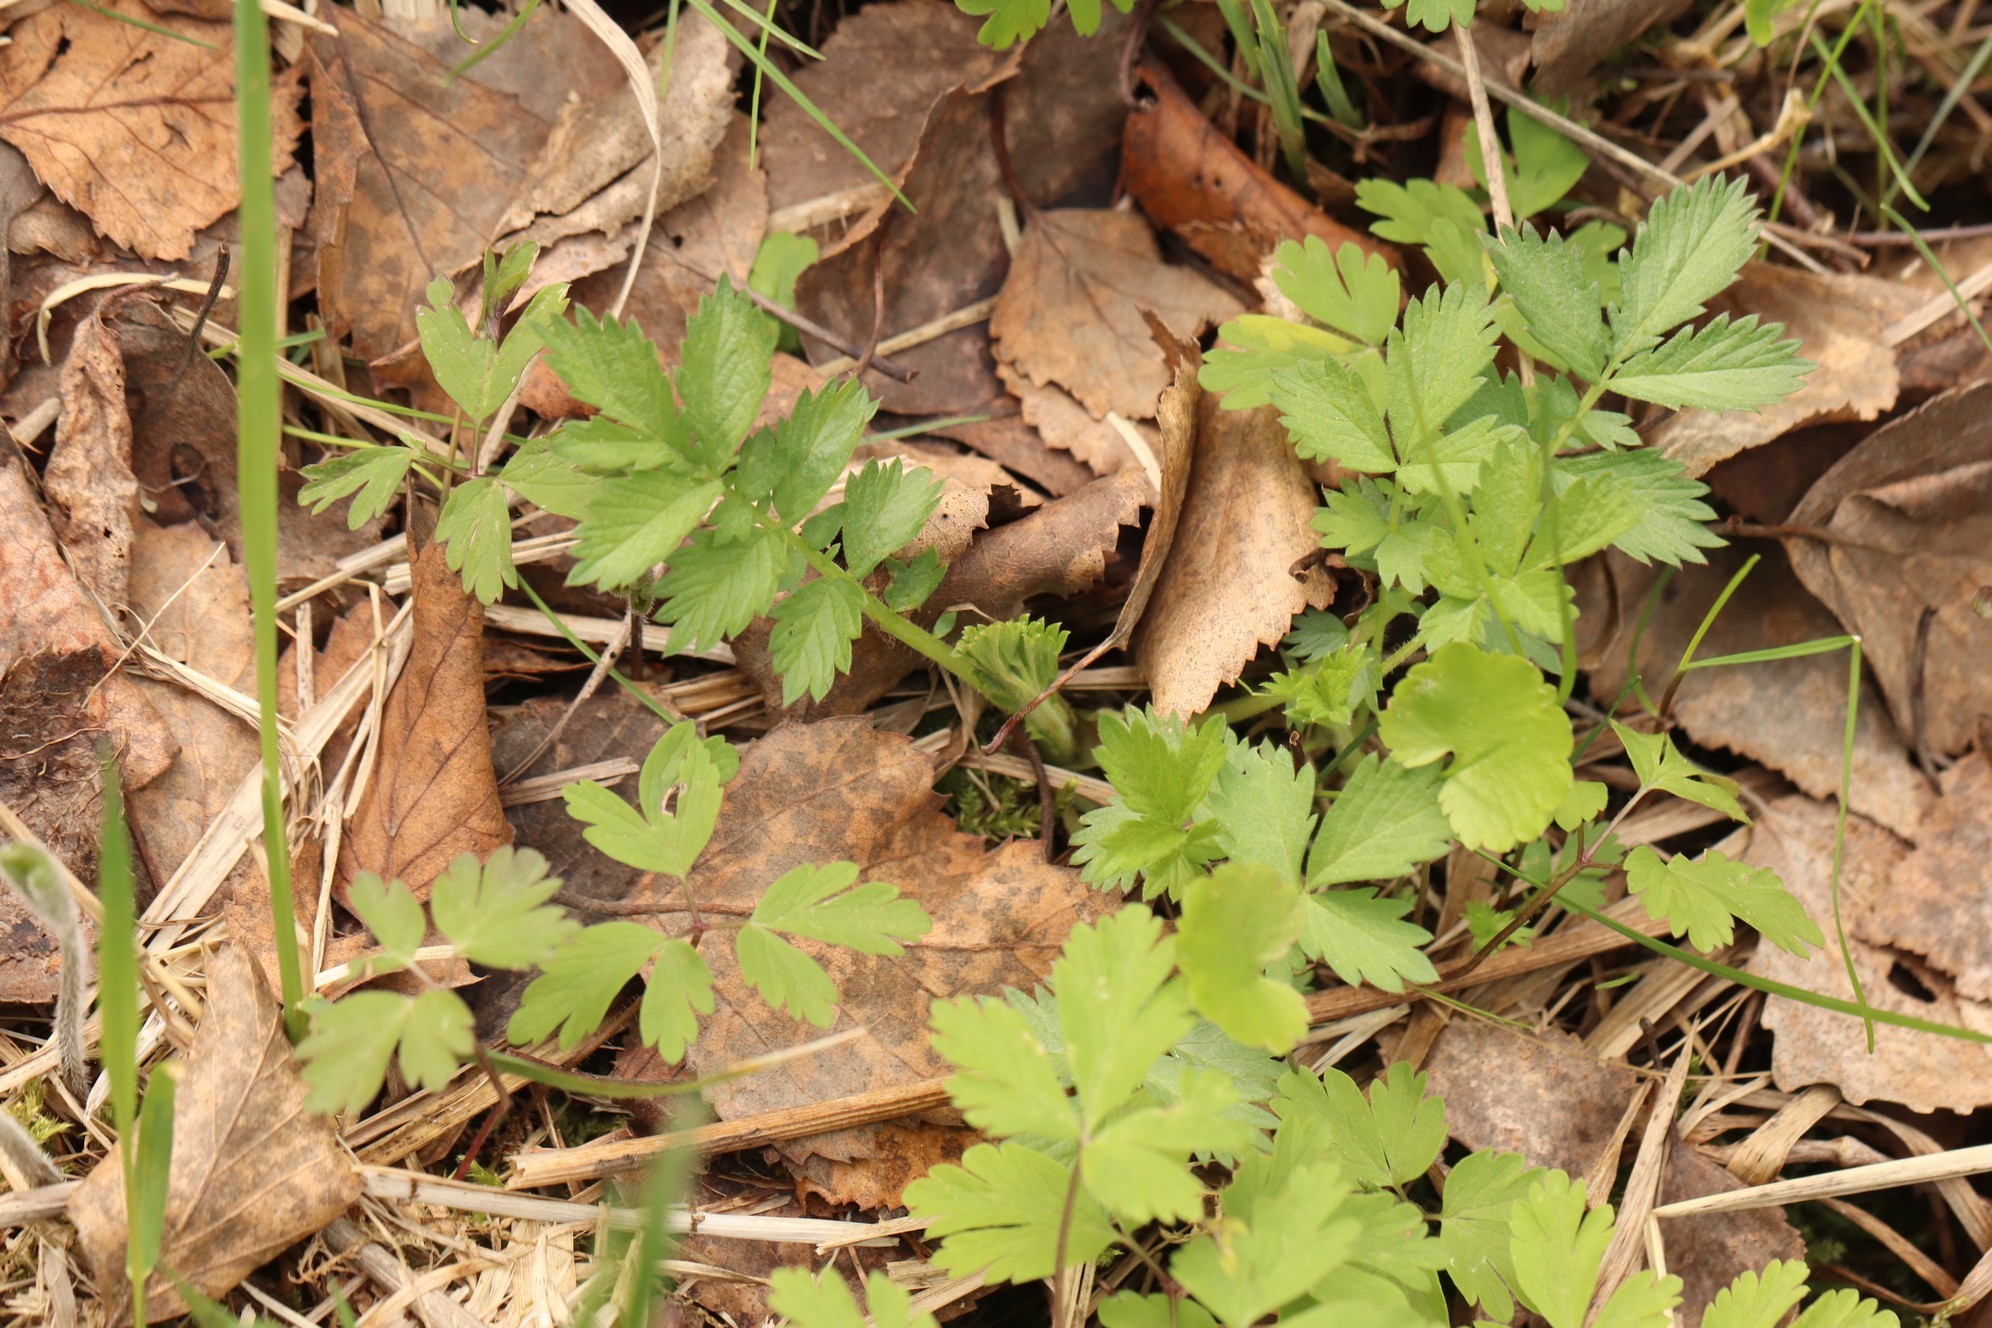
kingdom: Plantae
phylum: Tracheophyta
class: Magnoliopsida
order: Rosales
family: Rosaceae
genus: Agrimonia
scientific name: Agrimonia pilosa
